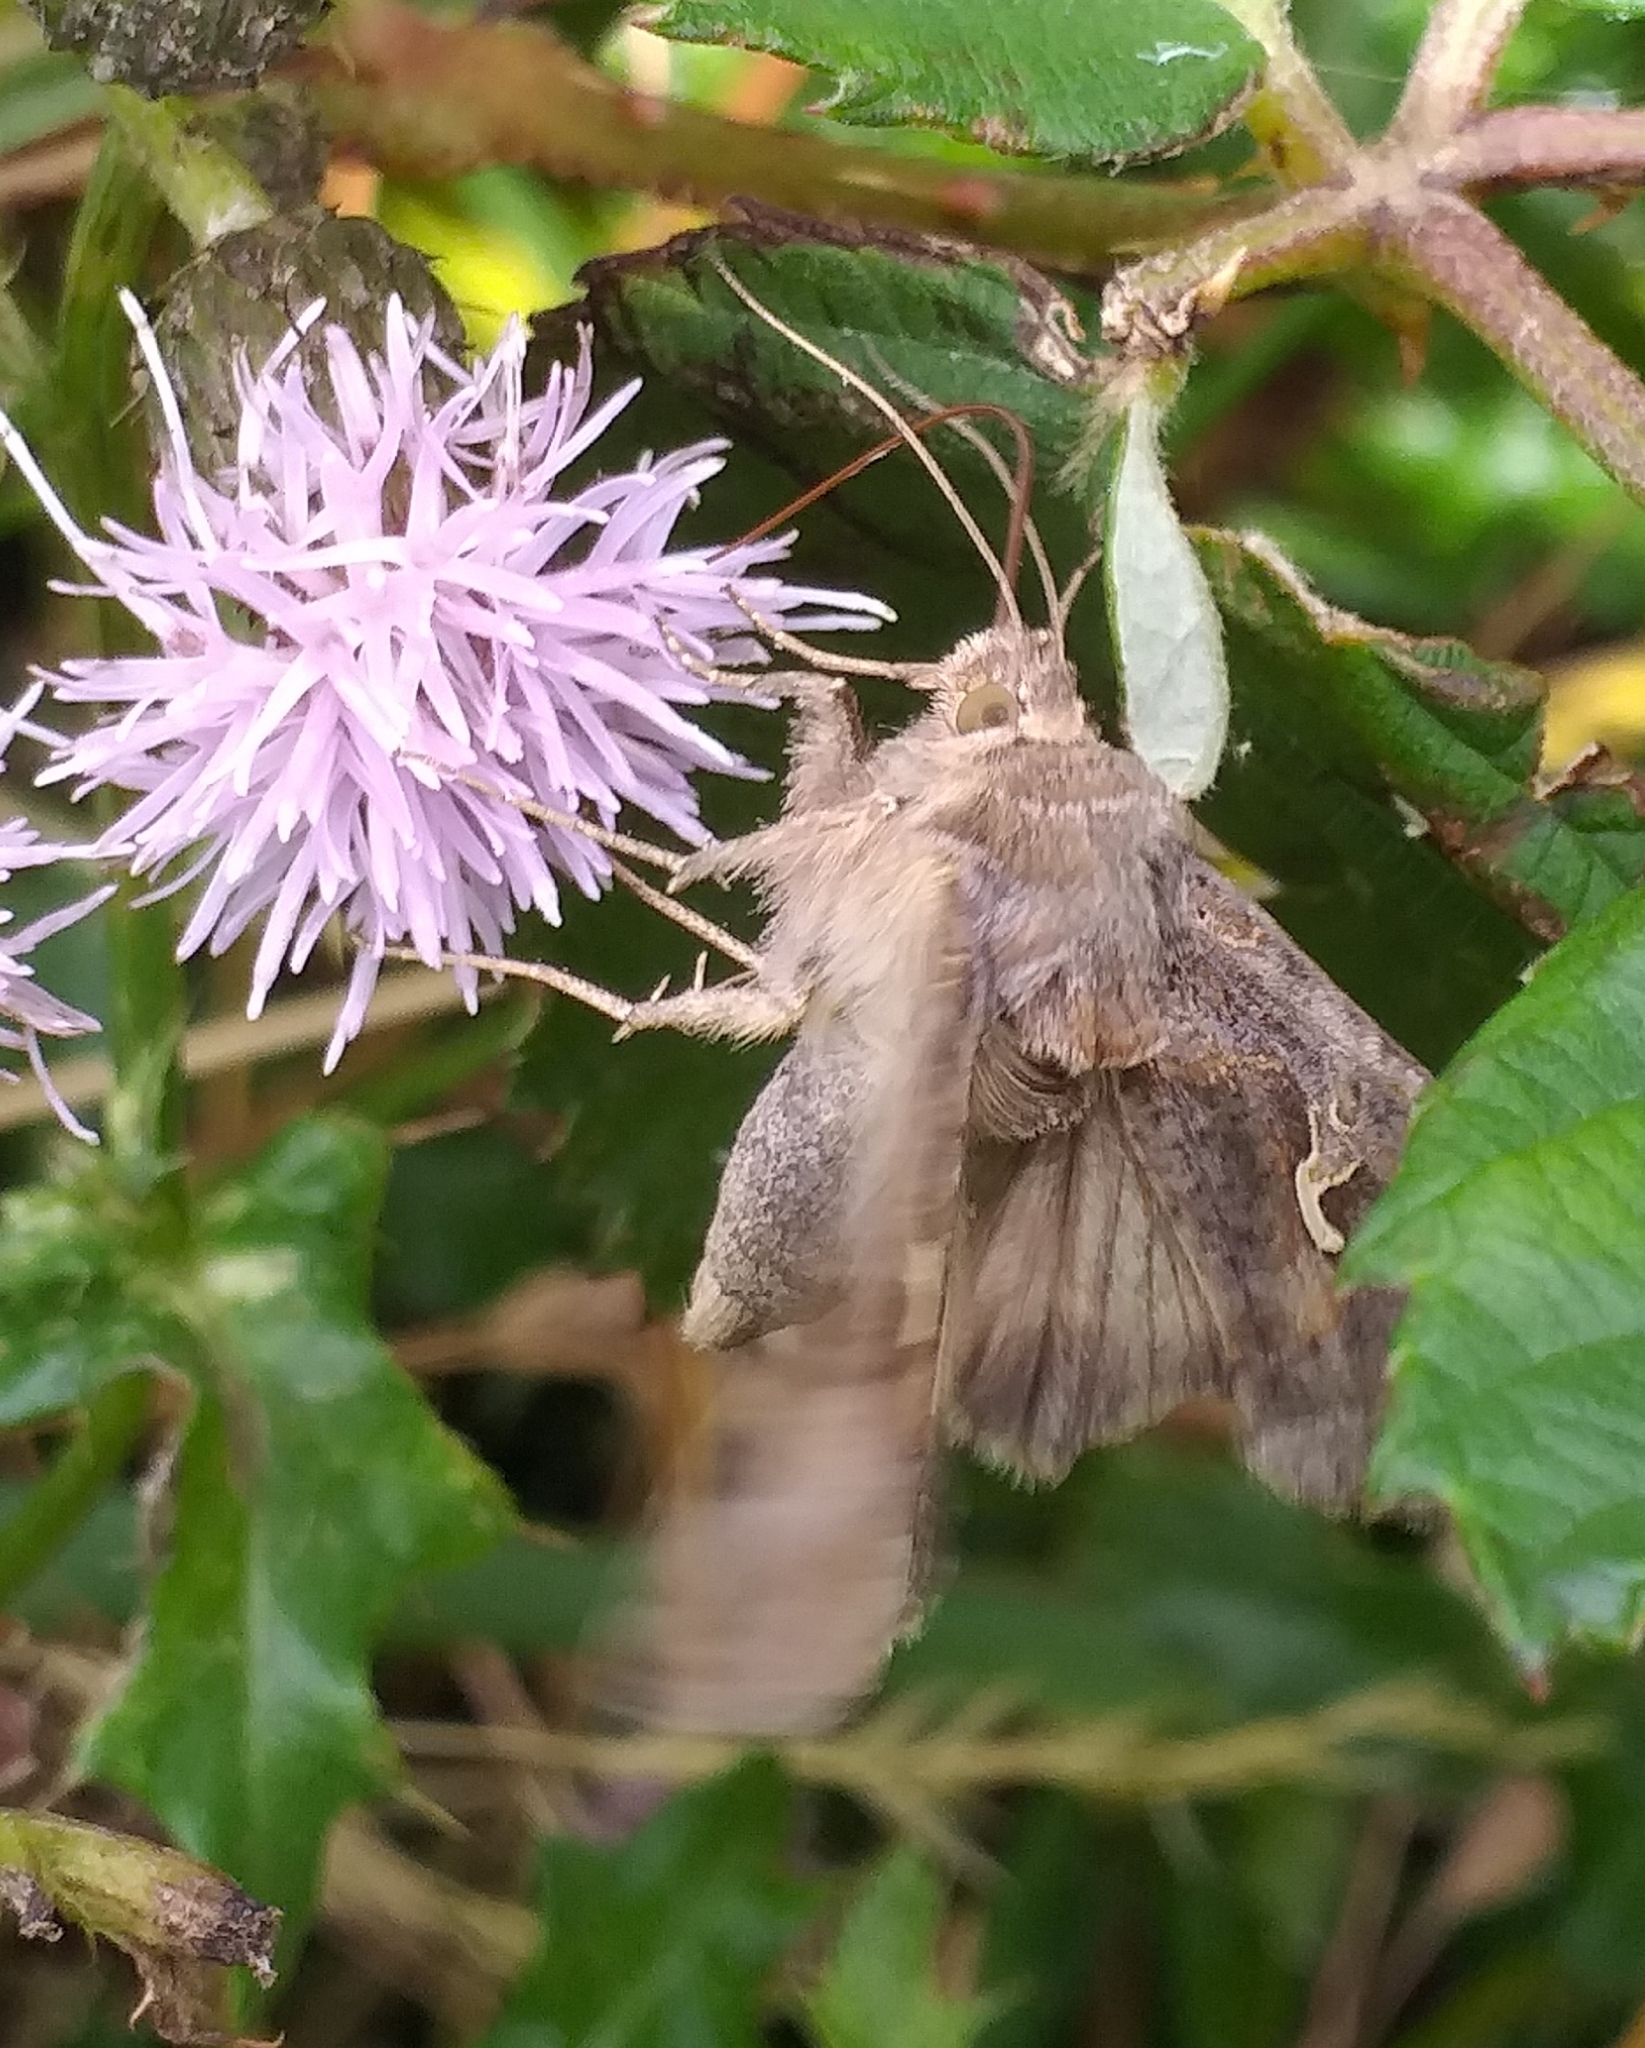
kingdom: Animalia
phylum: Arthropoda
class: Insecta
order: Lepidoptera
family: Noctuidae
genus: Autographa
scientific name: Autographa gamma
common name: Silver y
